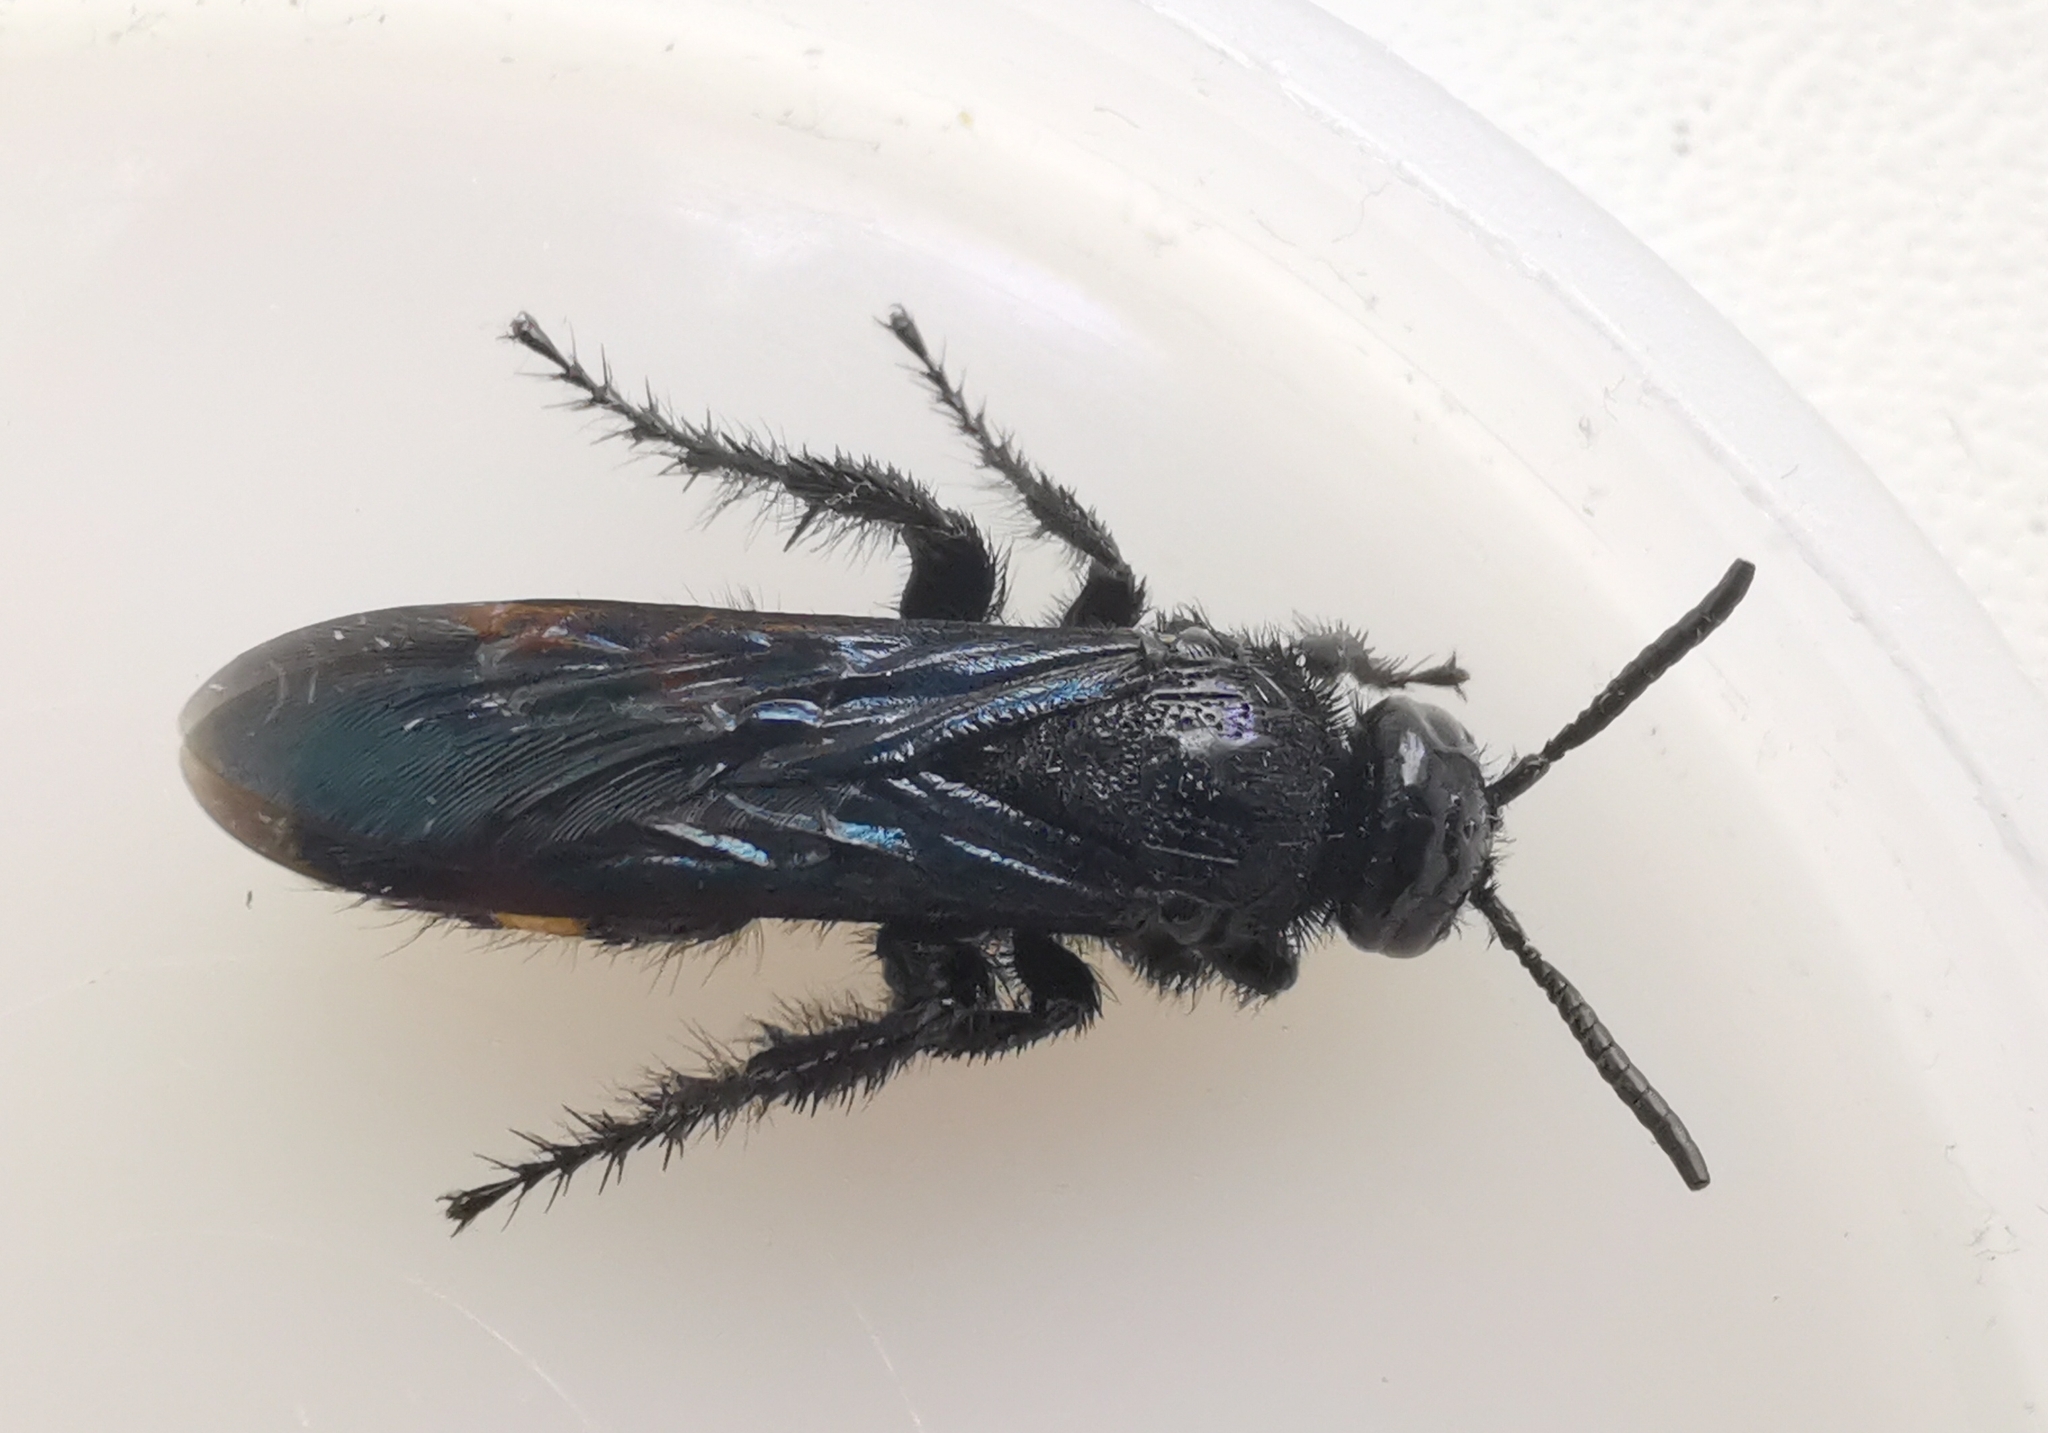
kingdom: Animalia
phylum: Arthropoda
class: Insecta
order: Hymenoptera
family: Scoliidae
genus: Scolia
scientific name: Scolia hirta
